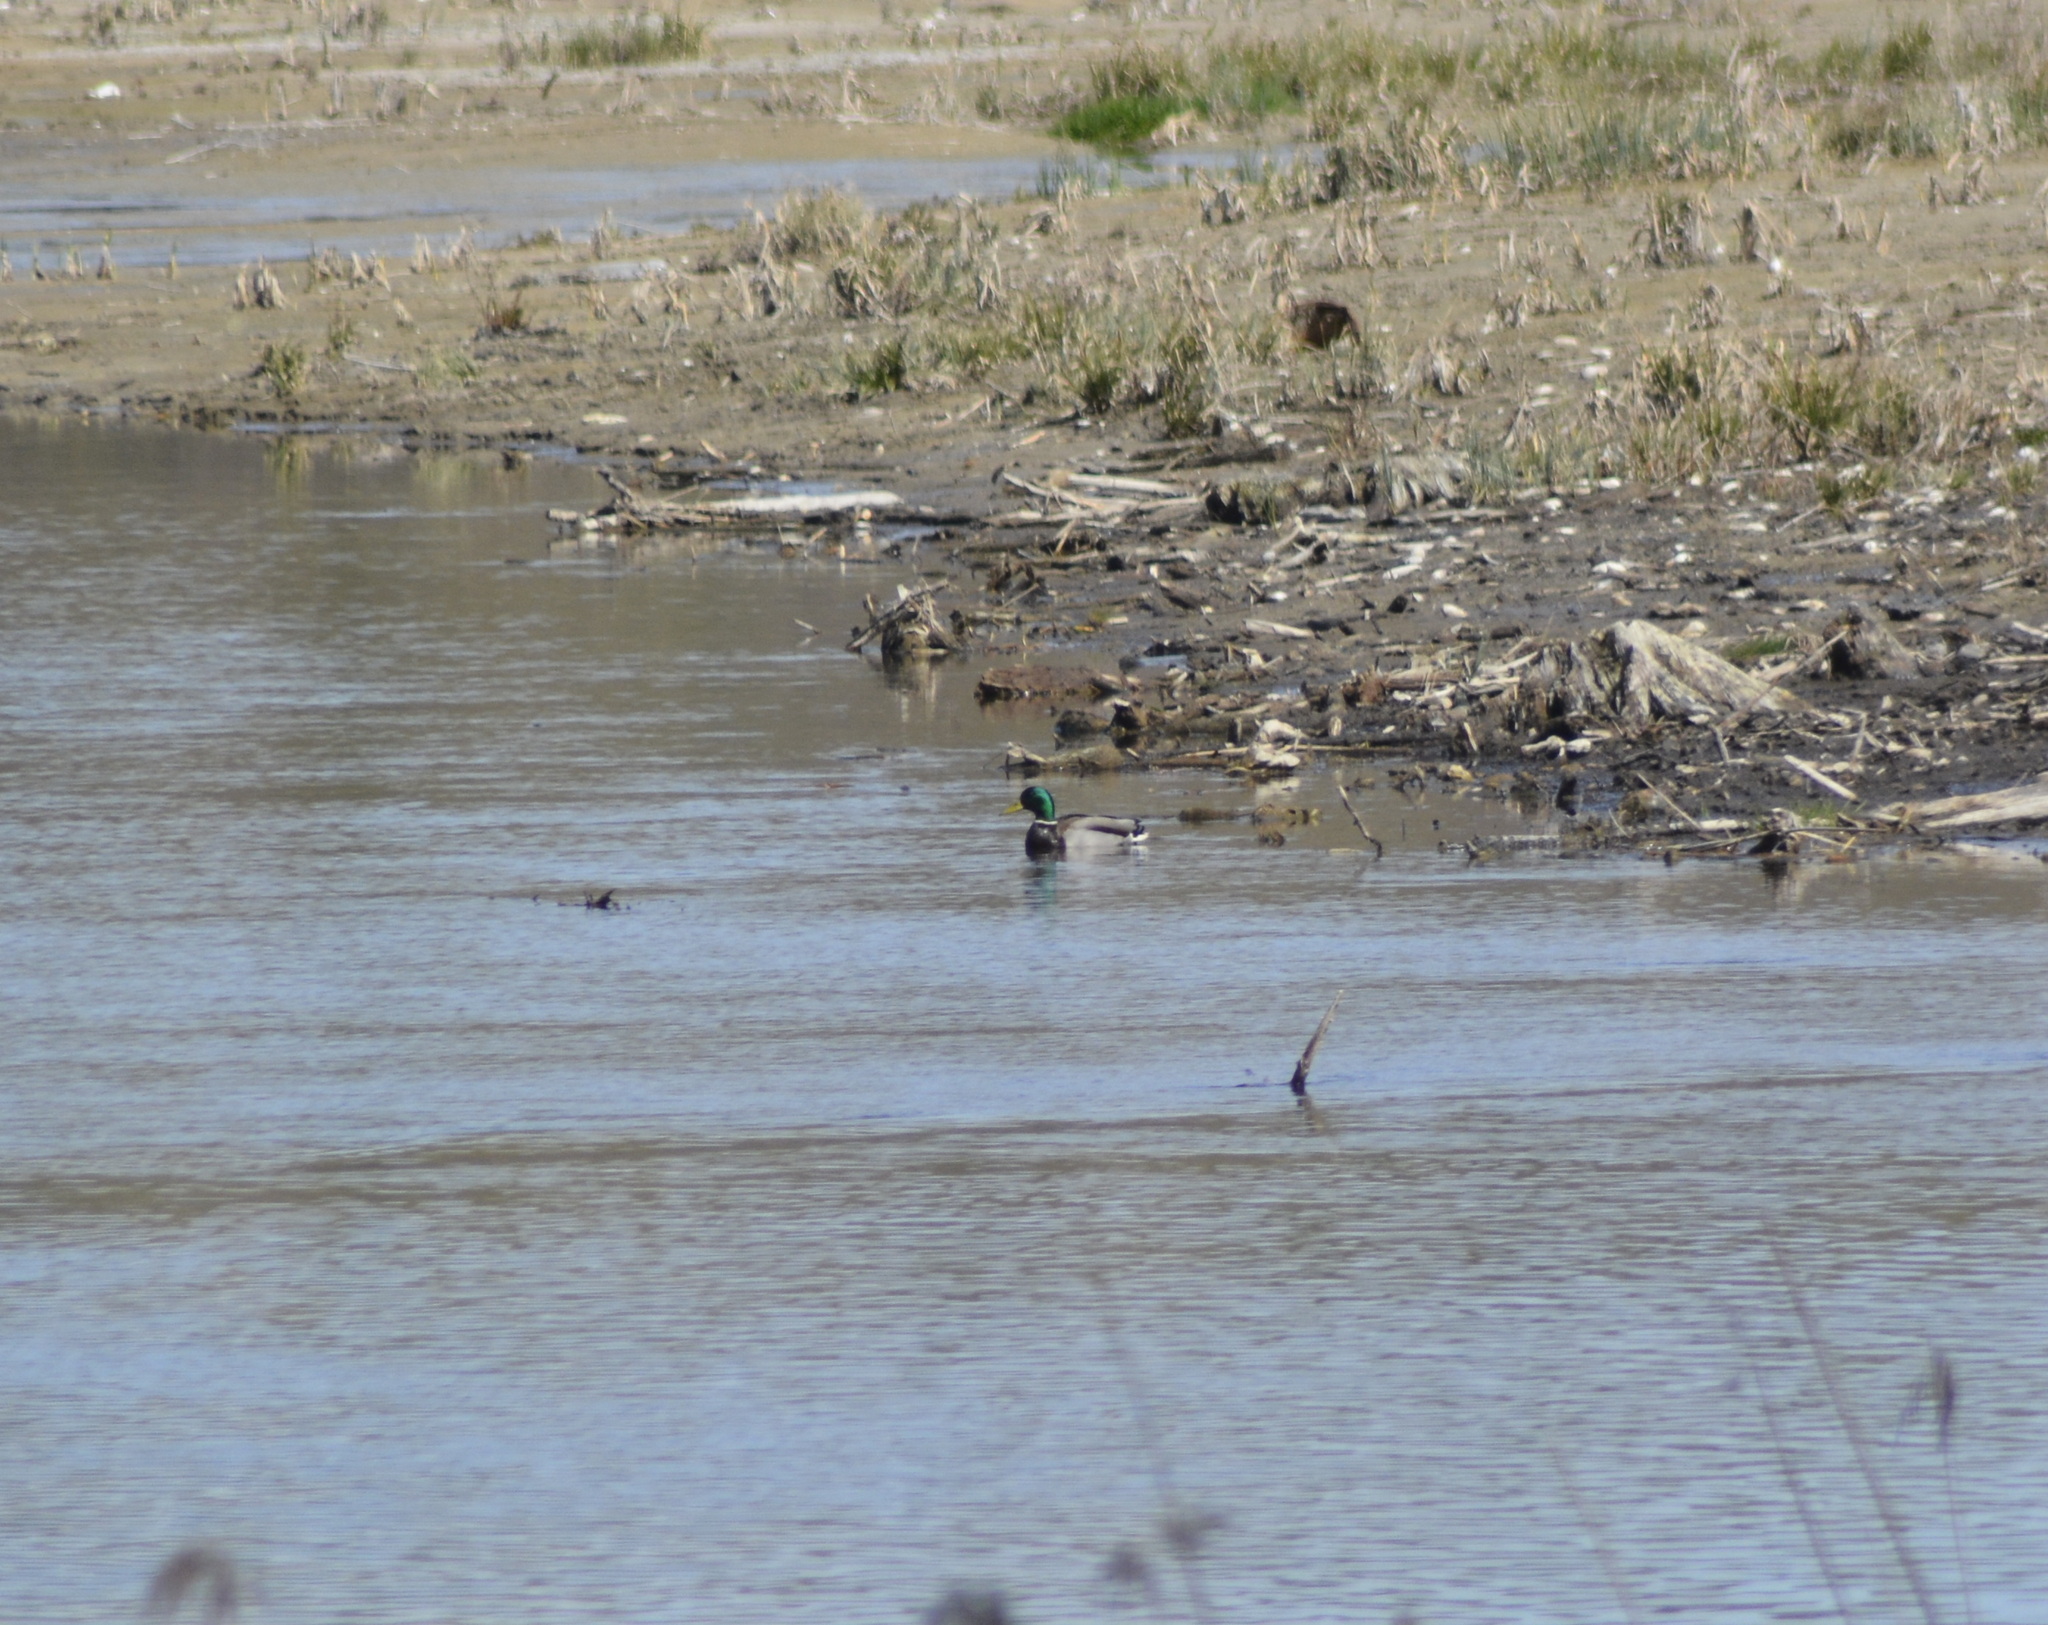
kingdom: Animalia
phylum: Chordata
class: Aves
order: Anseriformes
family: Anatidae
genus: Anas
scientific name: Anas platyrhynchos
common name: Mallard
